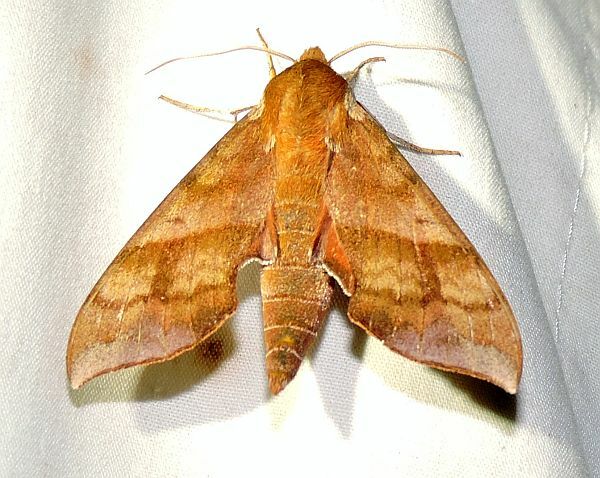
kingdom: Animalia
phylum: Arthropoda
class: Insecta
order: Lepidoptera
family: Sphingidae
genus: Darapsa
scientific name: Darapsa choerilus
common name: Azalea sphinx
